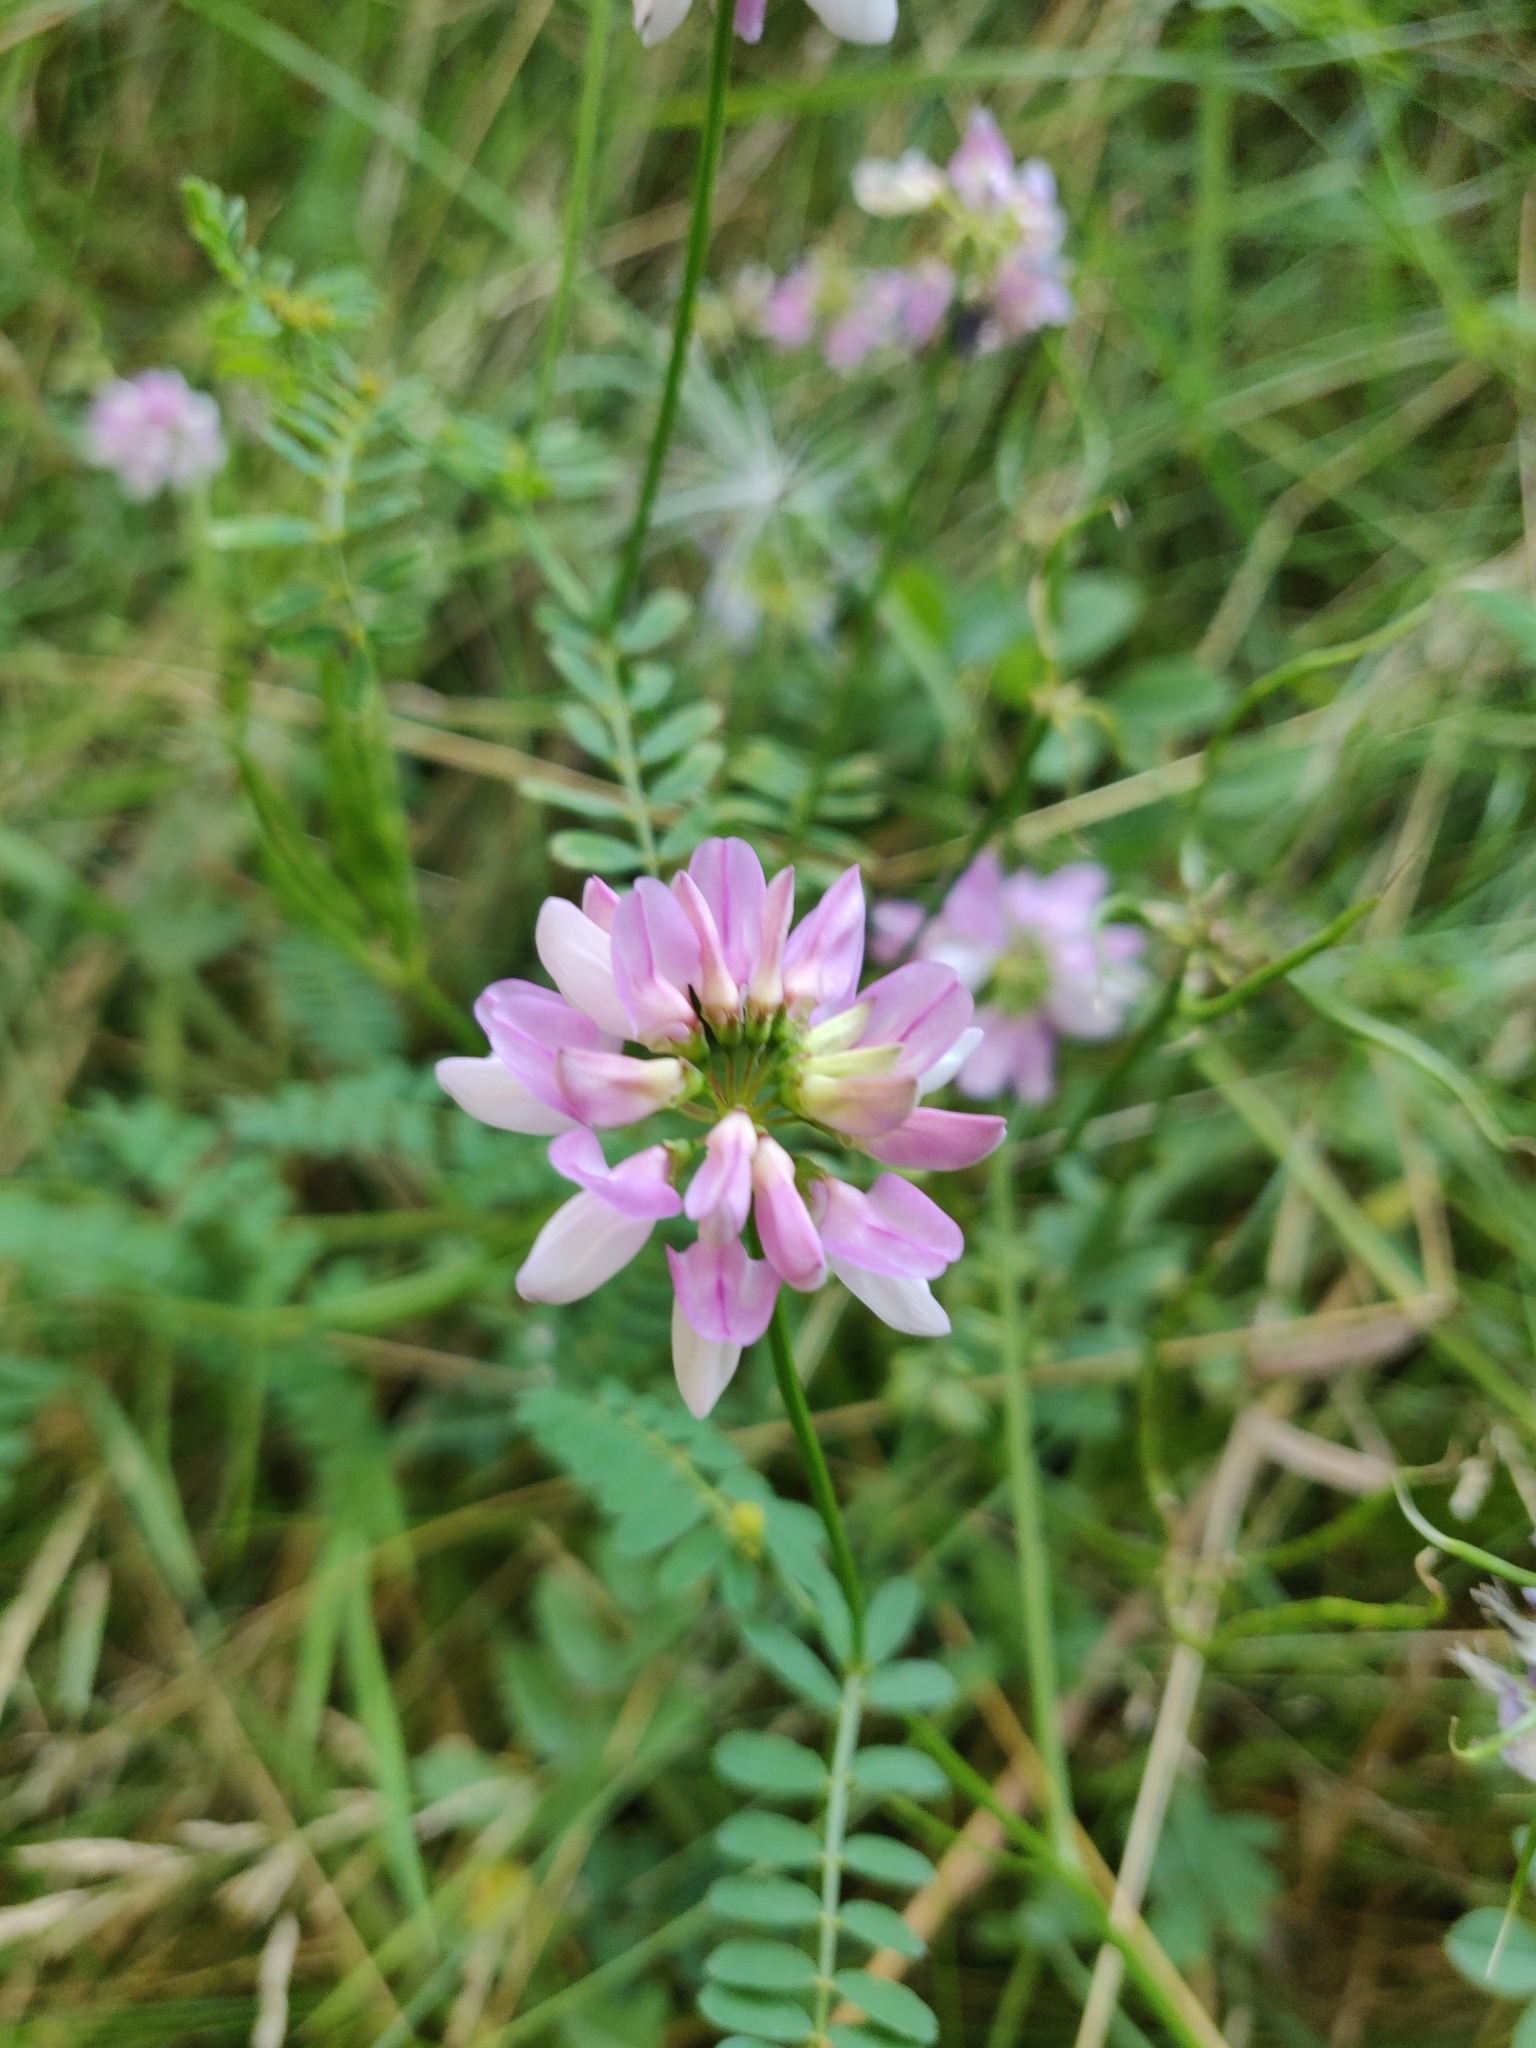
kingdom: Plantae
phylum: Tracheophyta
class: Magnoliopsida
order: Fabales
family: Fabaceae
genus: Coronilla
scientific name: Coronilla varia
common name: Crownvetch
